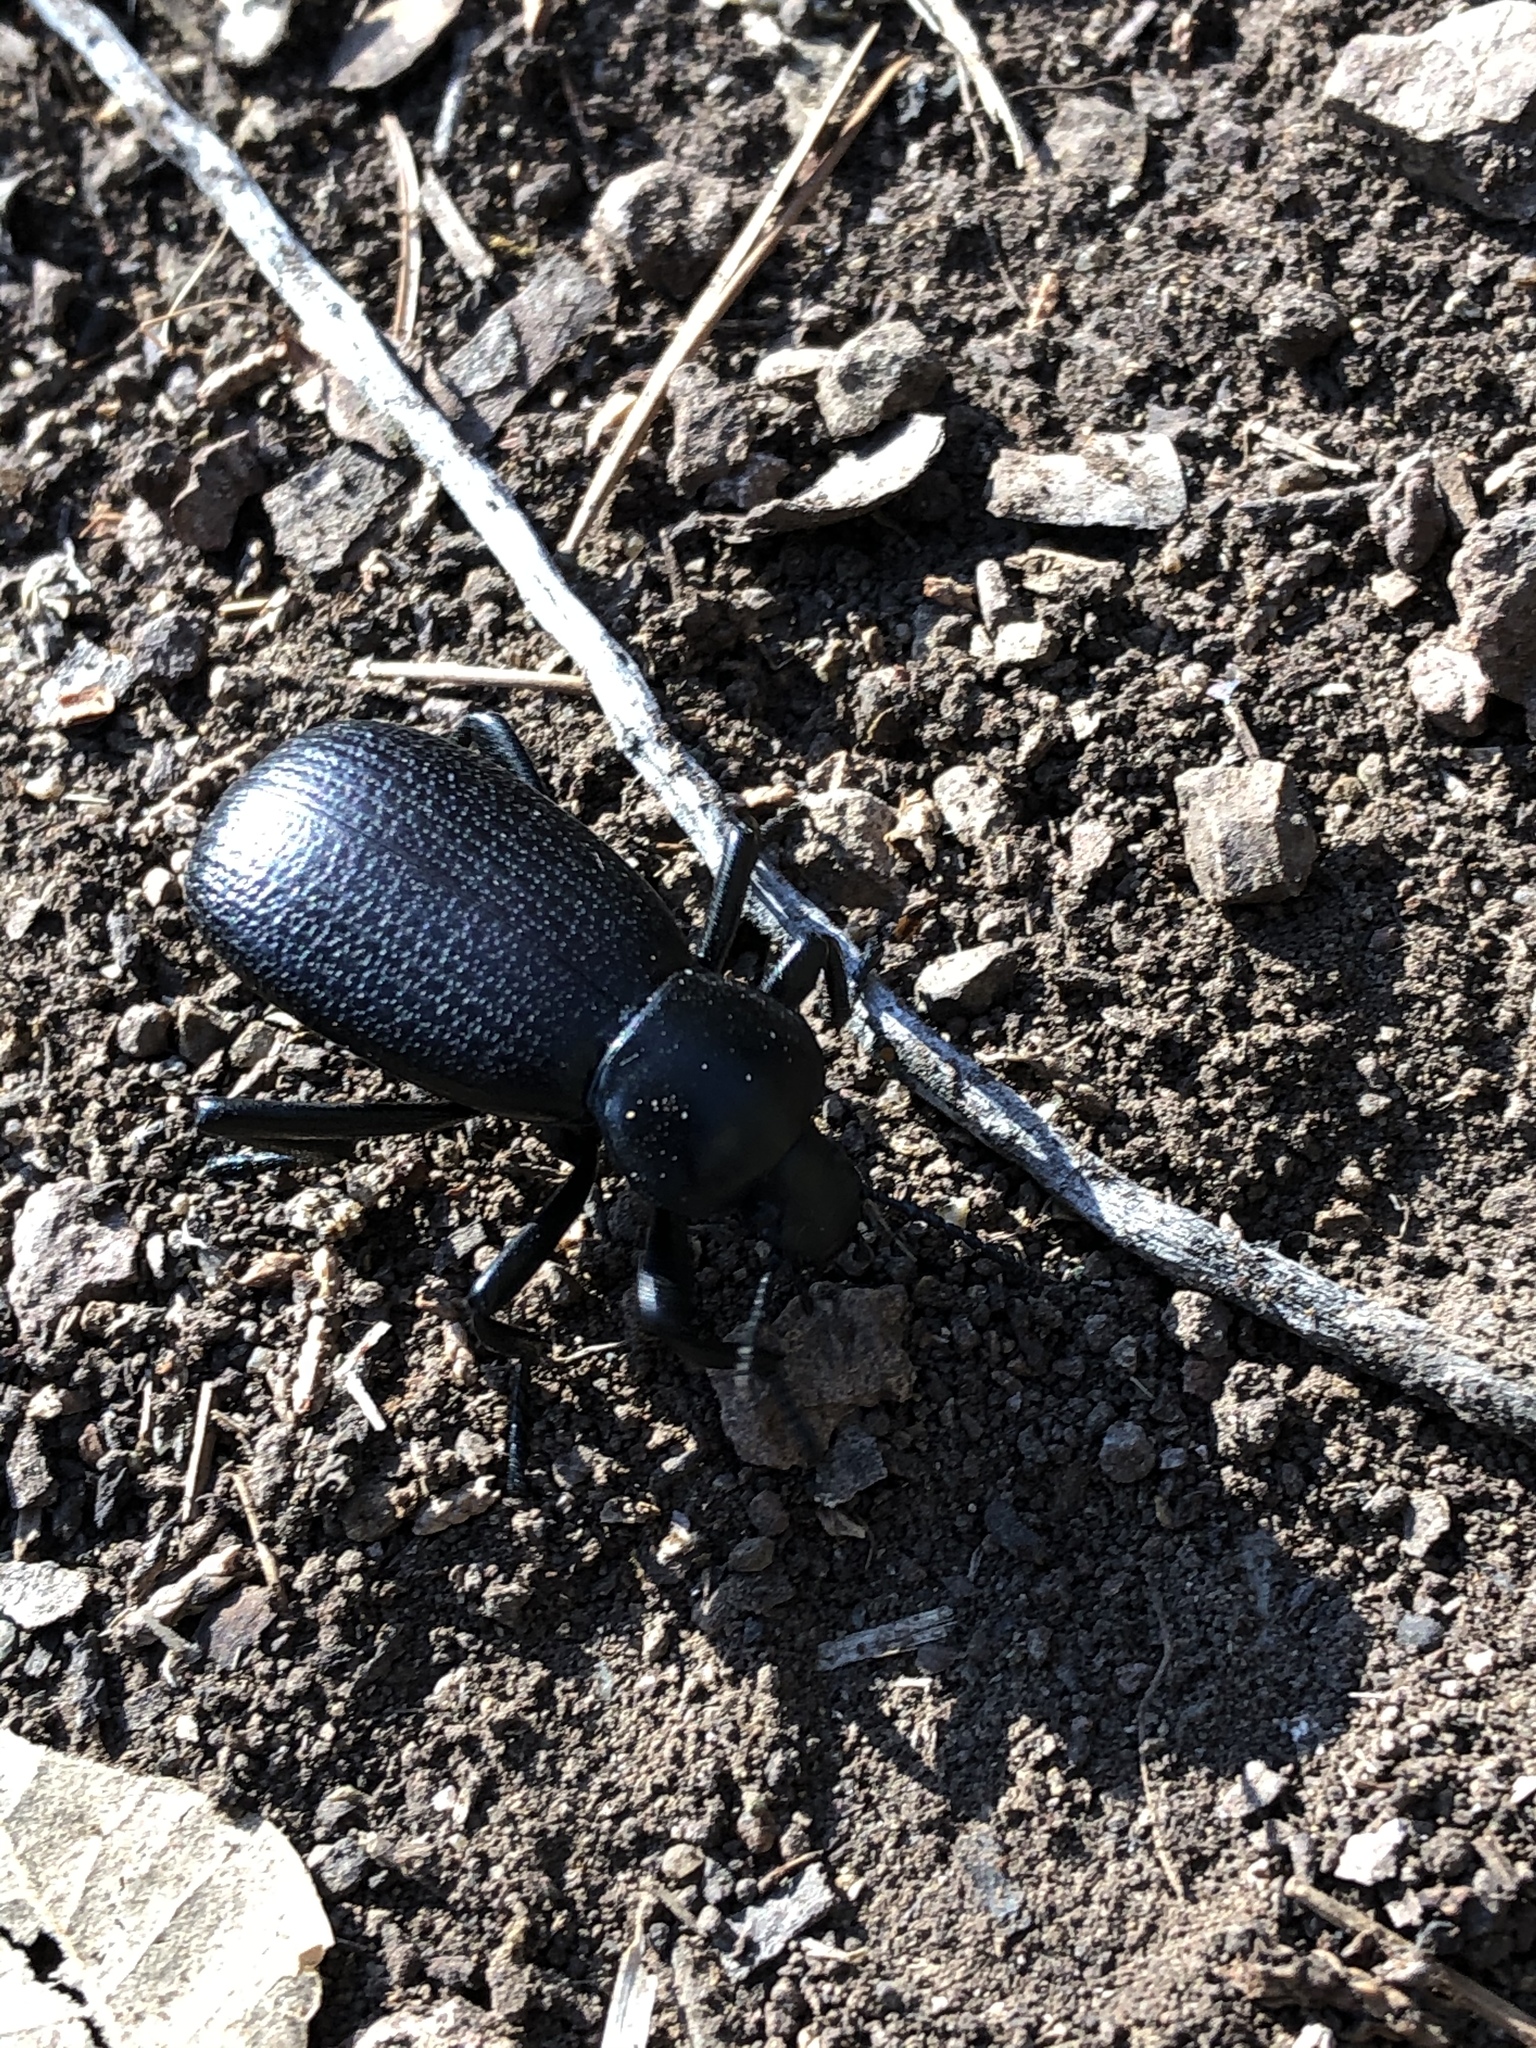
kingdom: Animalia
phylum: Arthropoda
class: Insecta
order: Coleoptera
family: Tenebrionidae
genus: Eleodes
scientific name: Eleodes obscura
